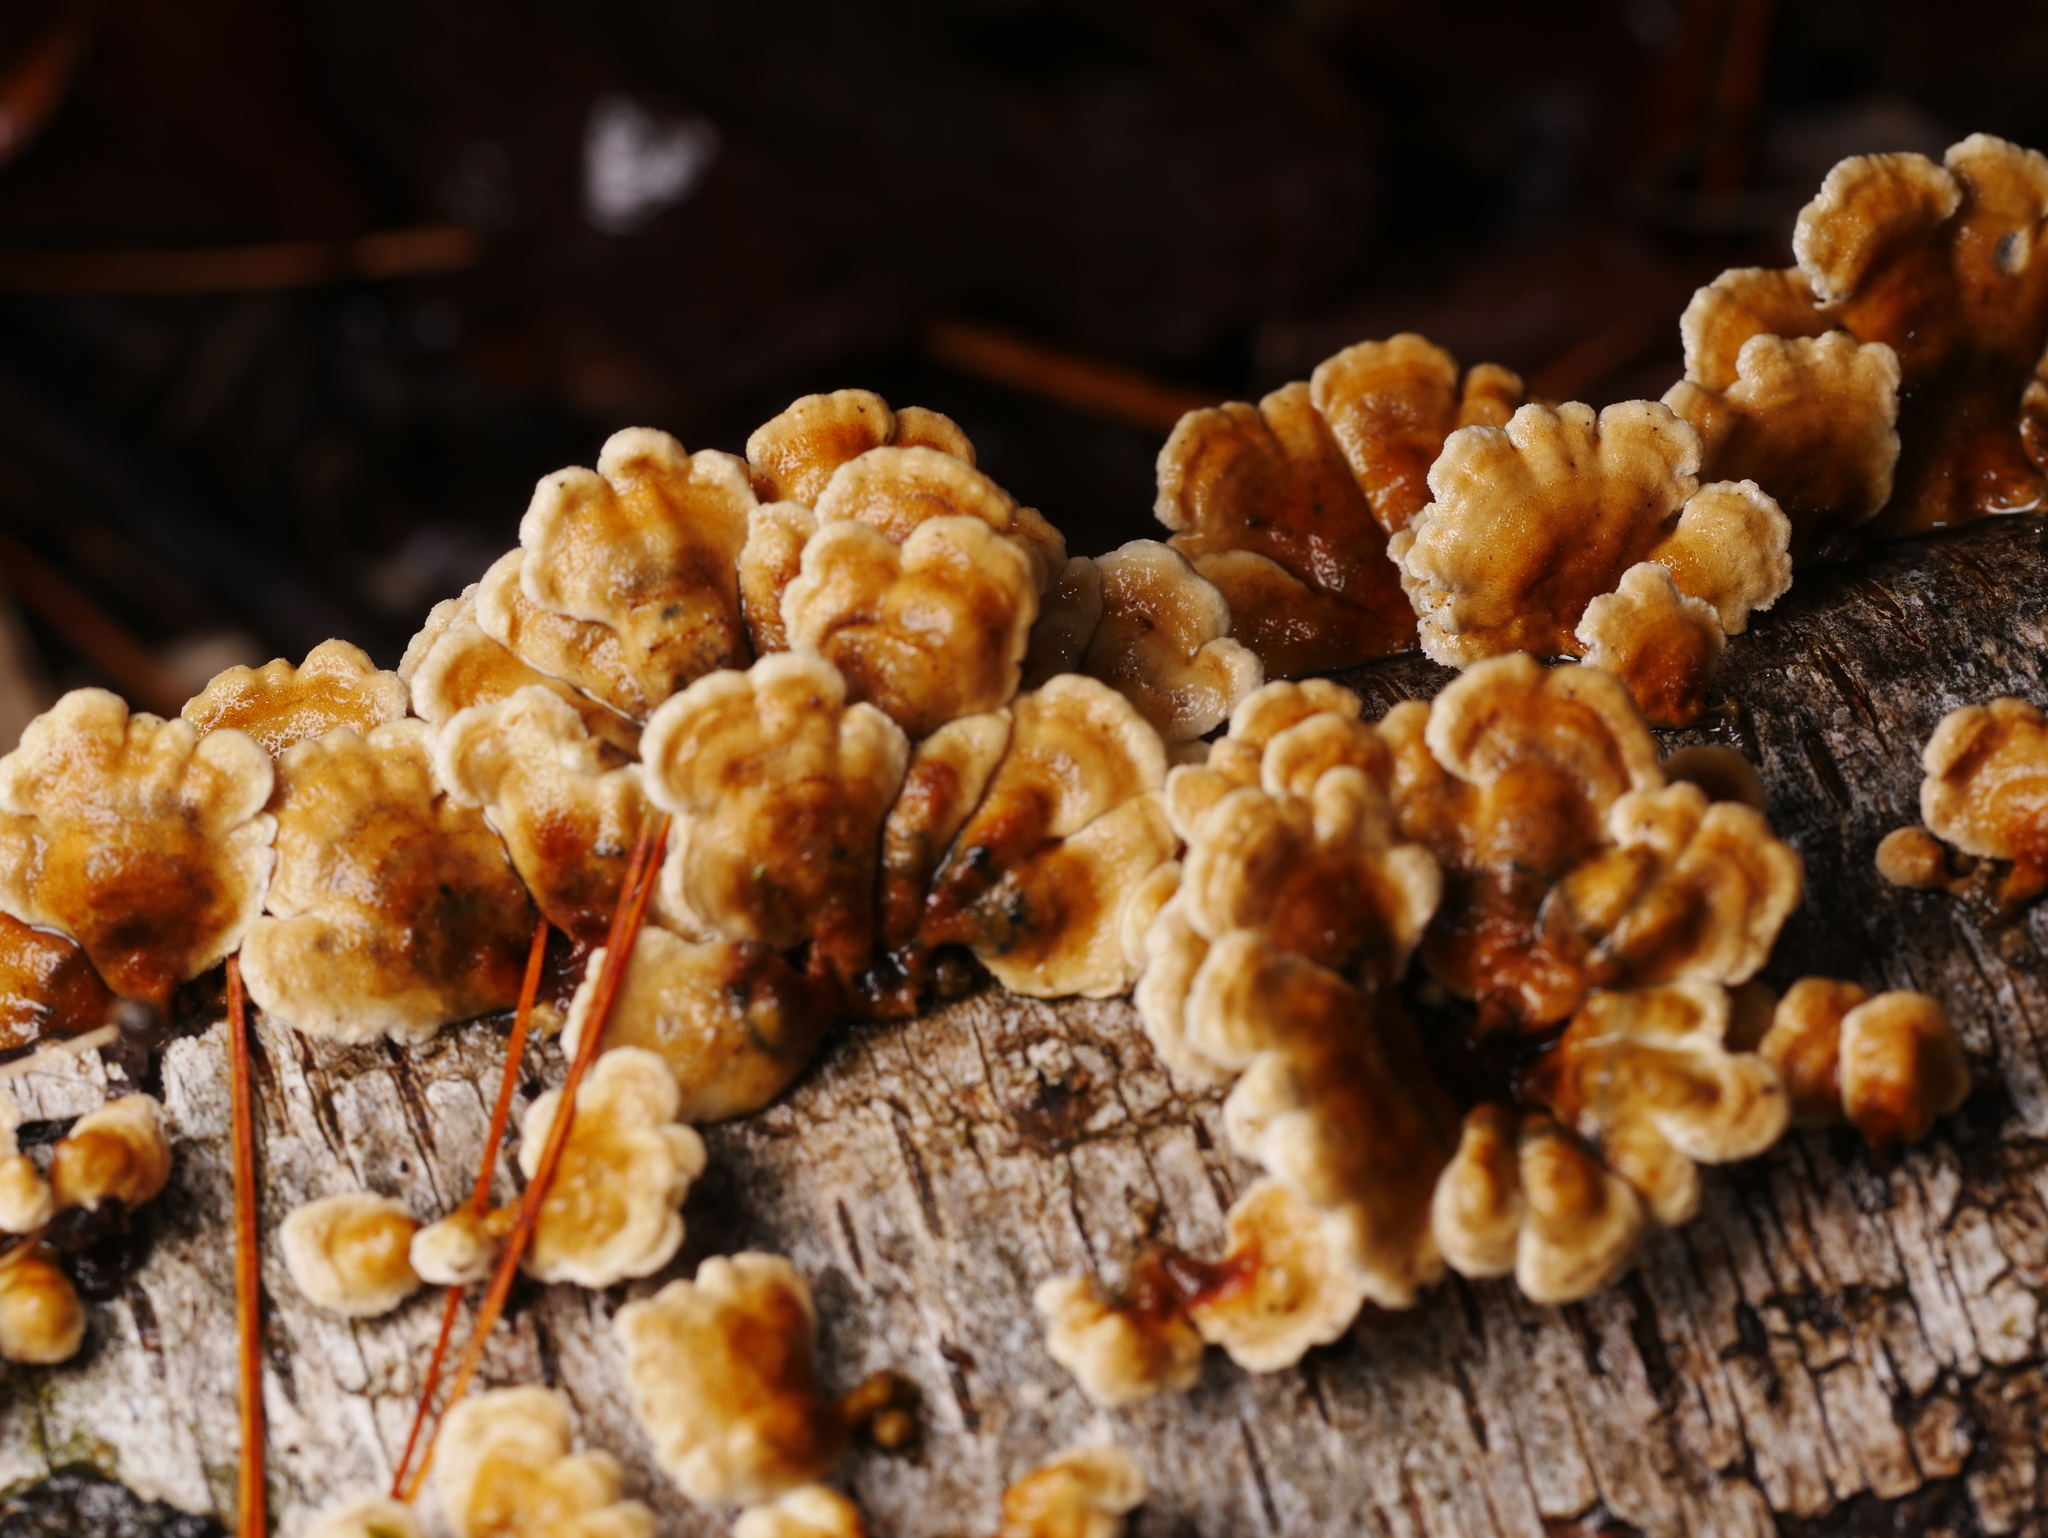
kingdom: Fungi
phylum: Basidiomycota
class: Agaricomycetes
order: Amylocorticiales
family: Amylocorticiaceae
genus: Plicaturopsis
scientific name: Plicaturopsis crispa
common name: Crimped gill
